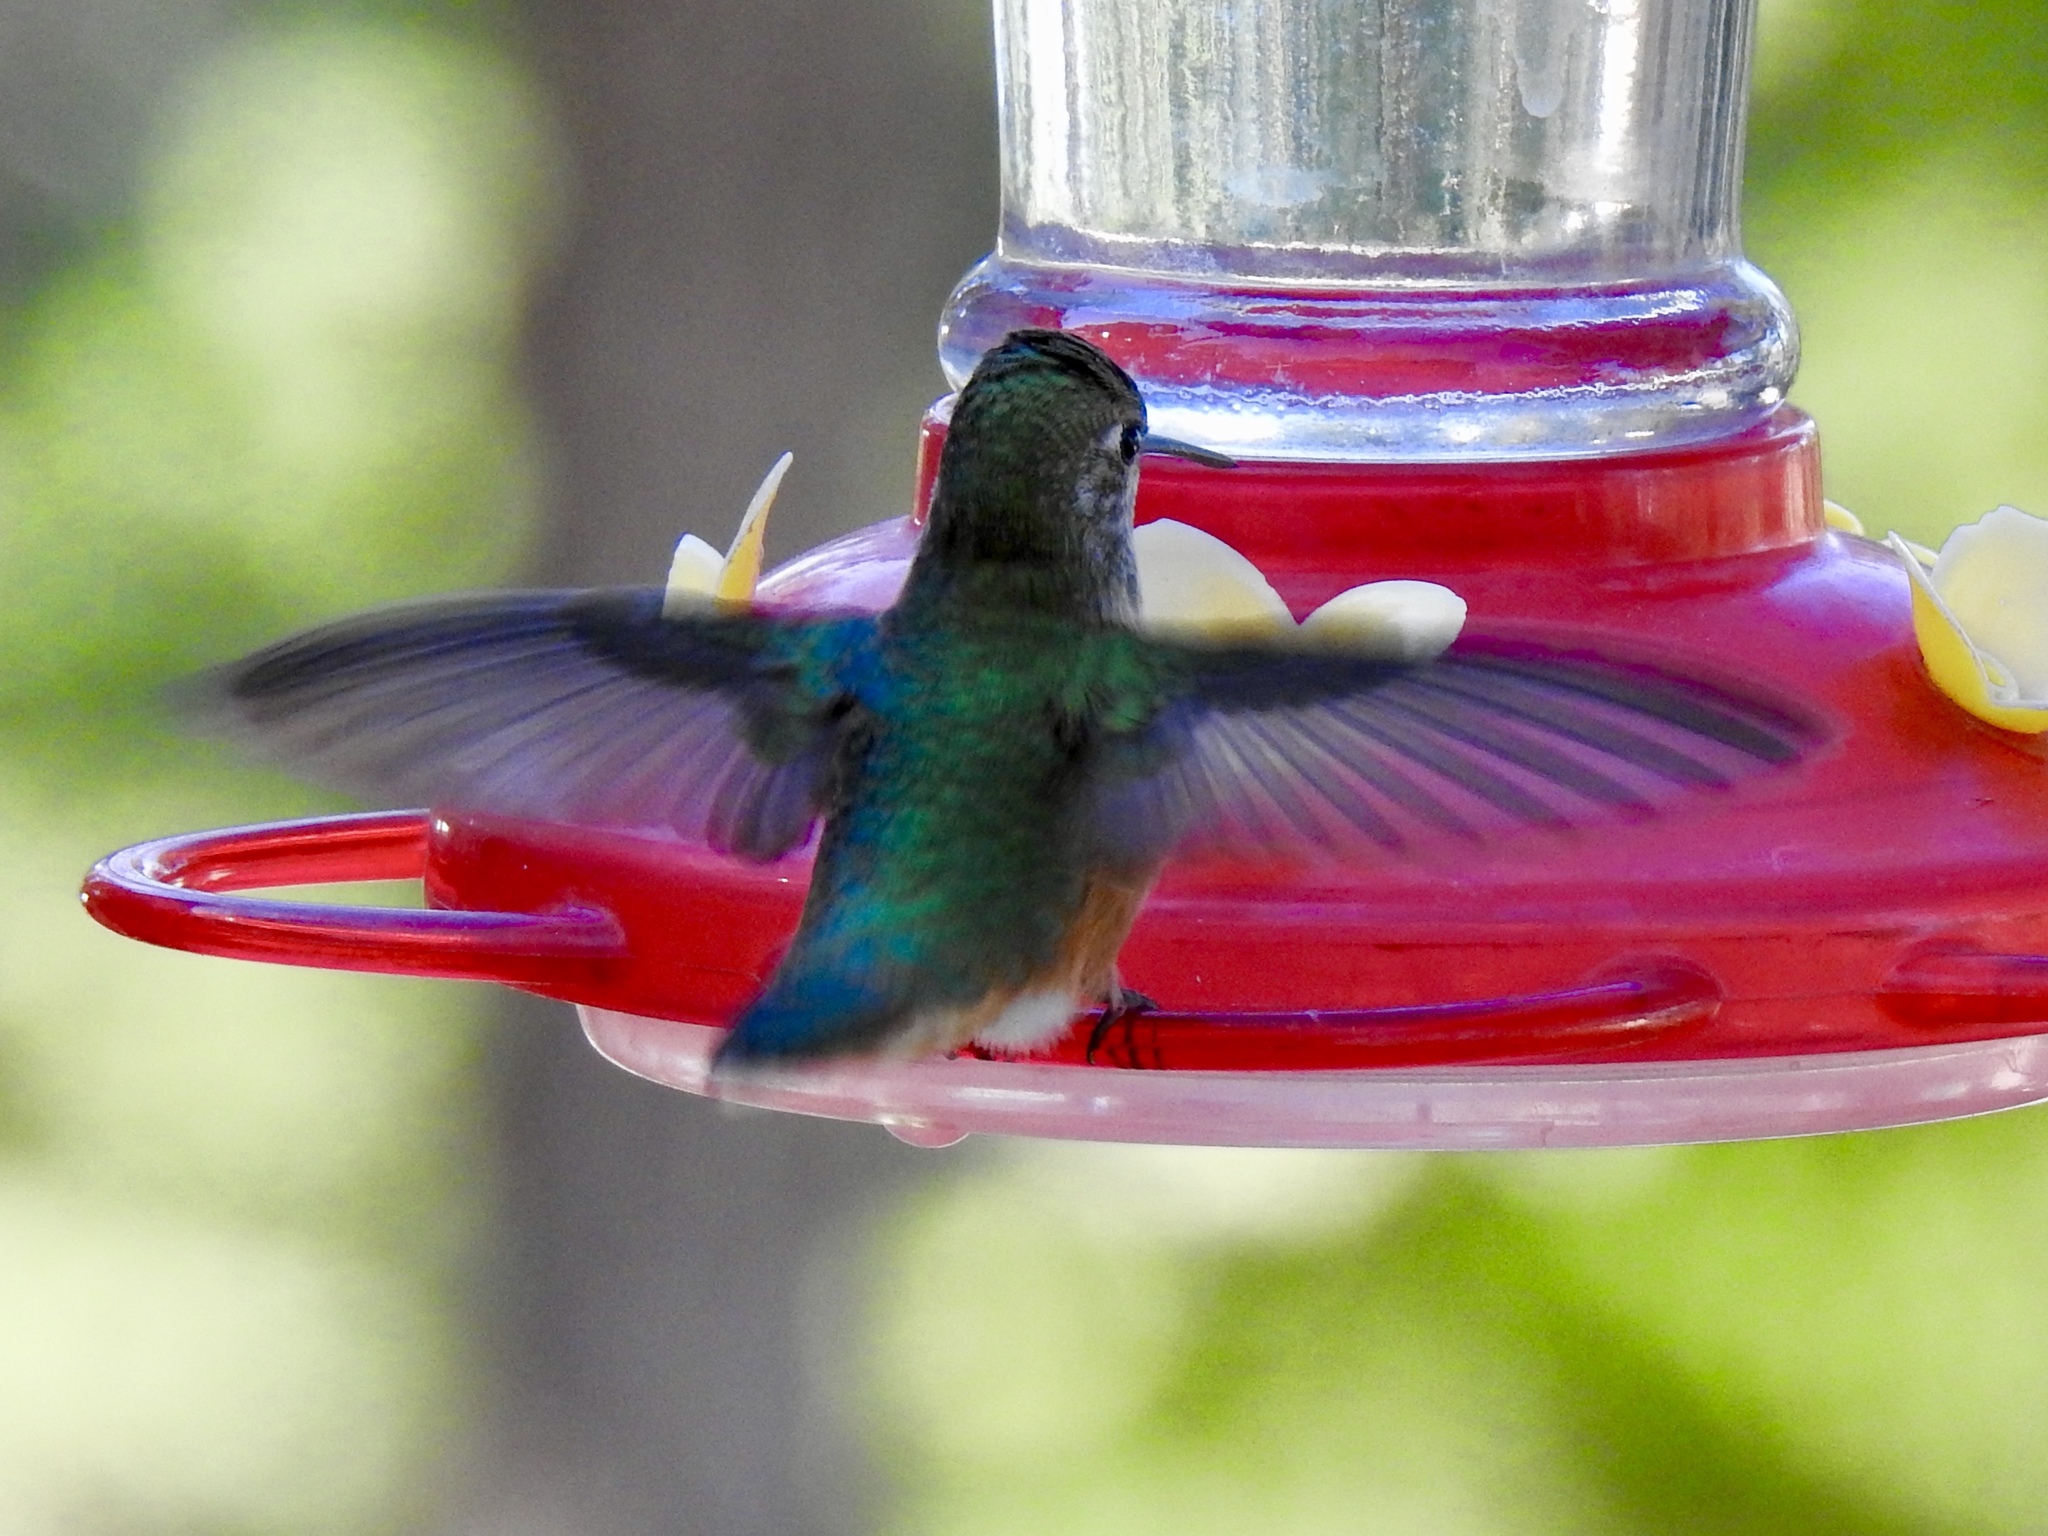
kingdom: Animalia
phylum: Chordata
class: Aves
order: Apodiformes
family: Trochilidae
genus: Selasphorus
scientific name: Selasphorus calliope
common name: Calliope hummingbird
